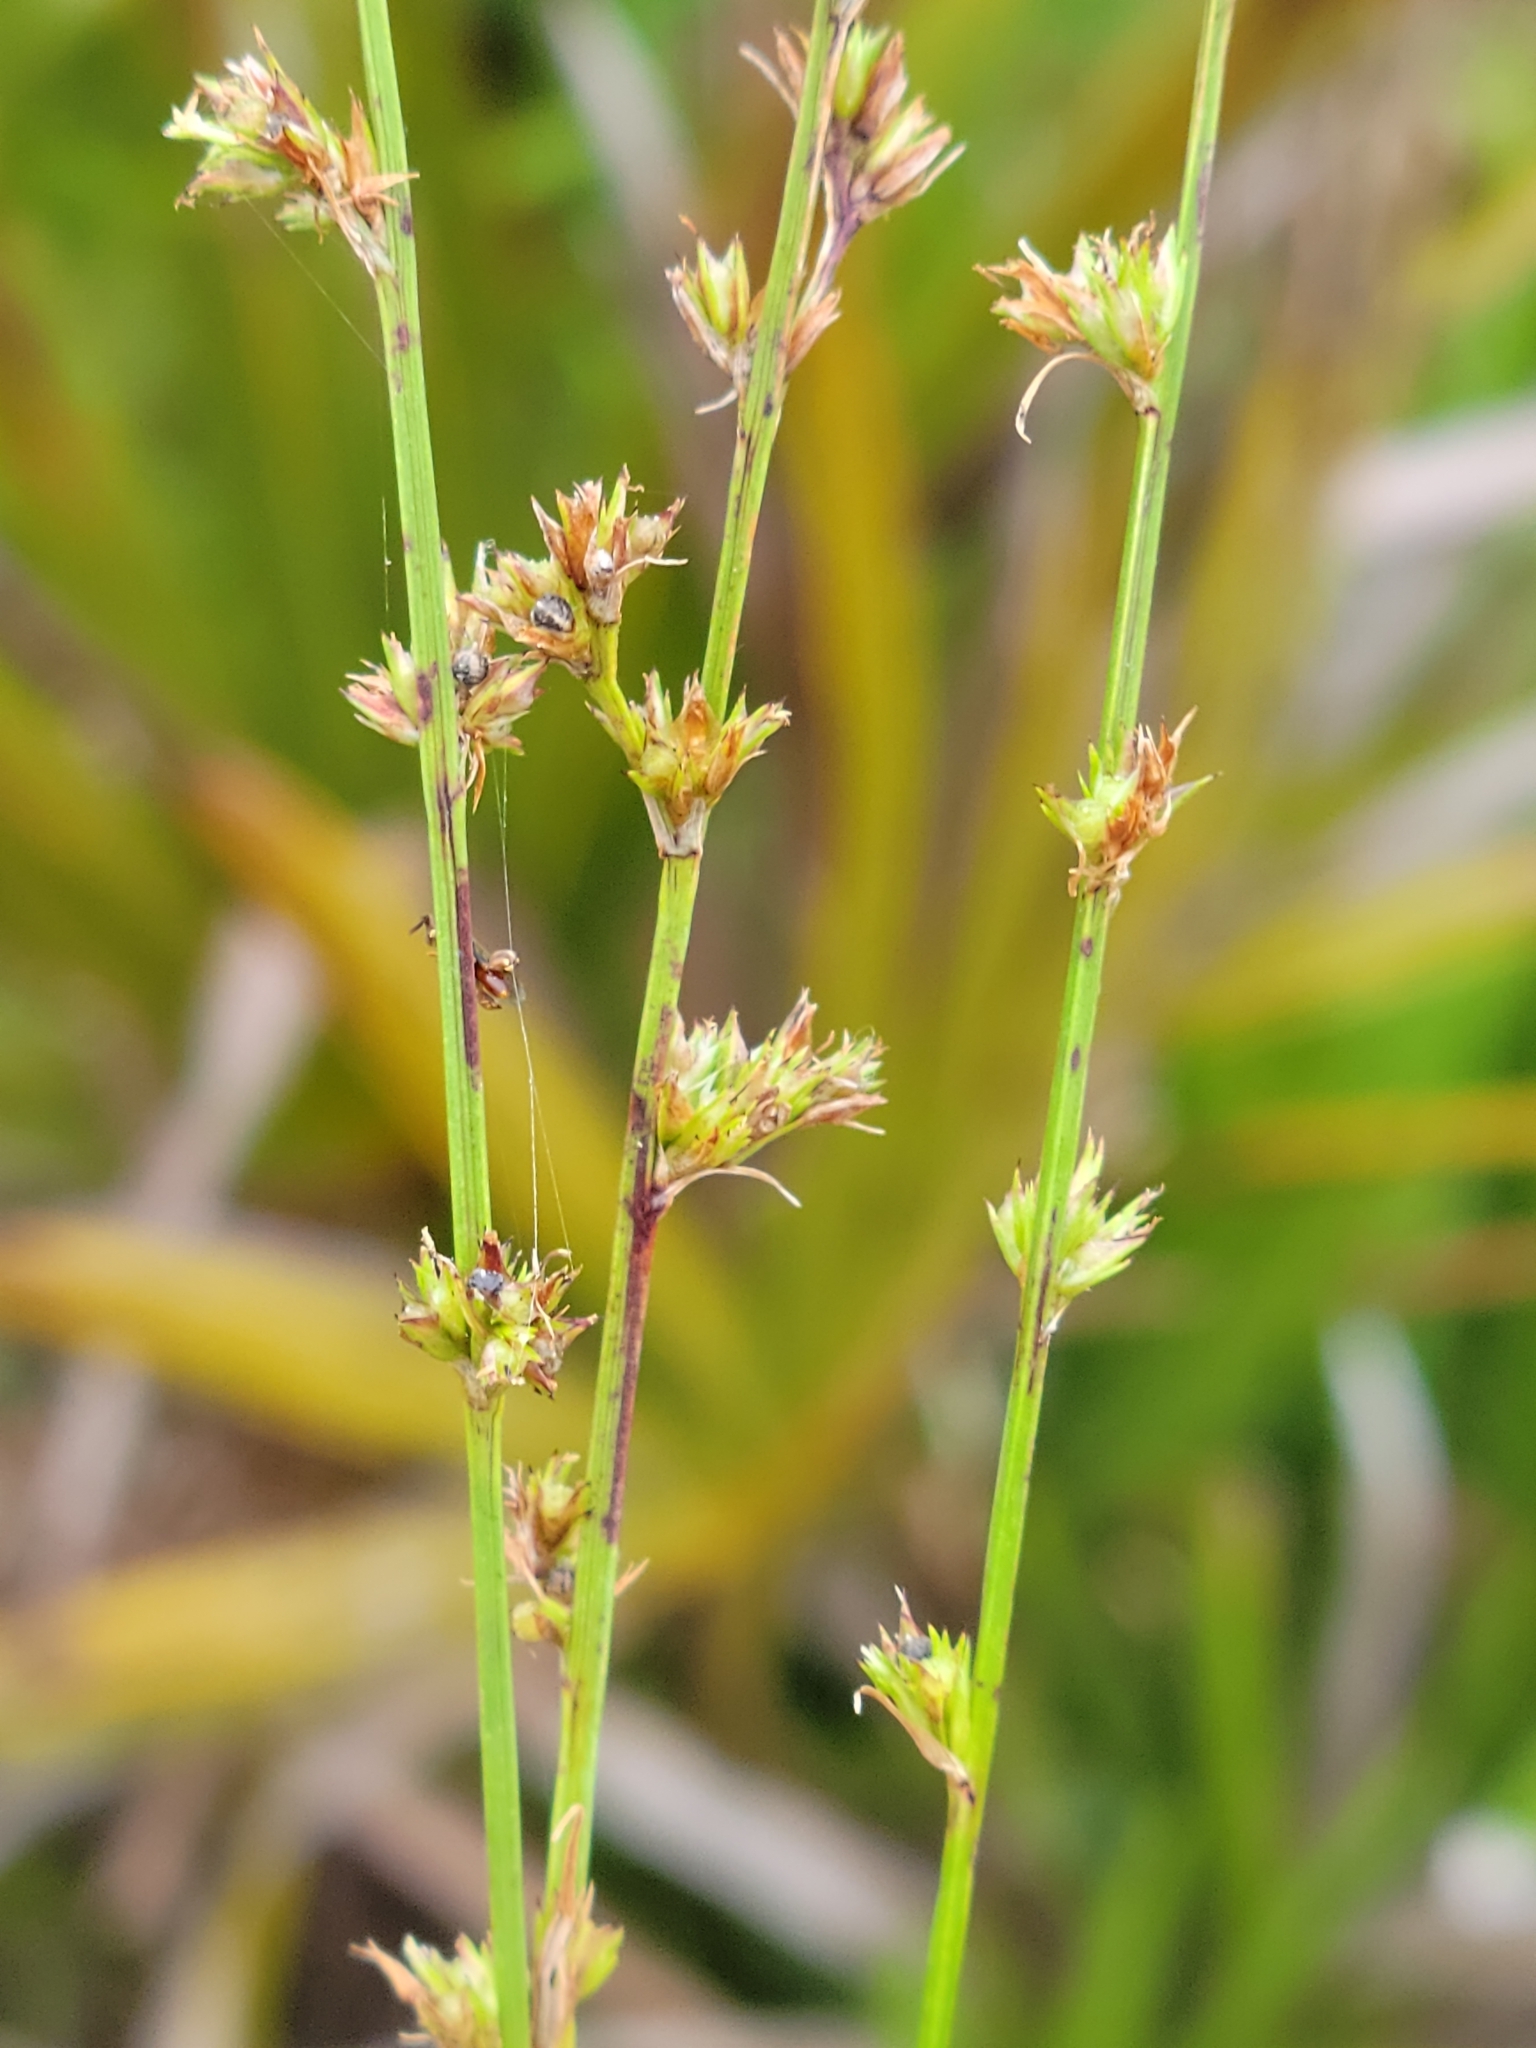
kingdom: Plantae
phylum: Tracheophyta
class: Liliopsida
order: Poales
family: Cyperaceae
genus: Scleria
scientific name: Scleria verticillata
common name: Low nutrush
